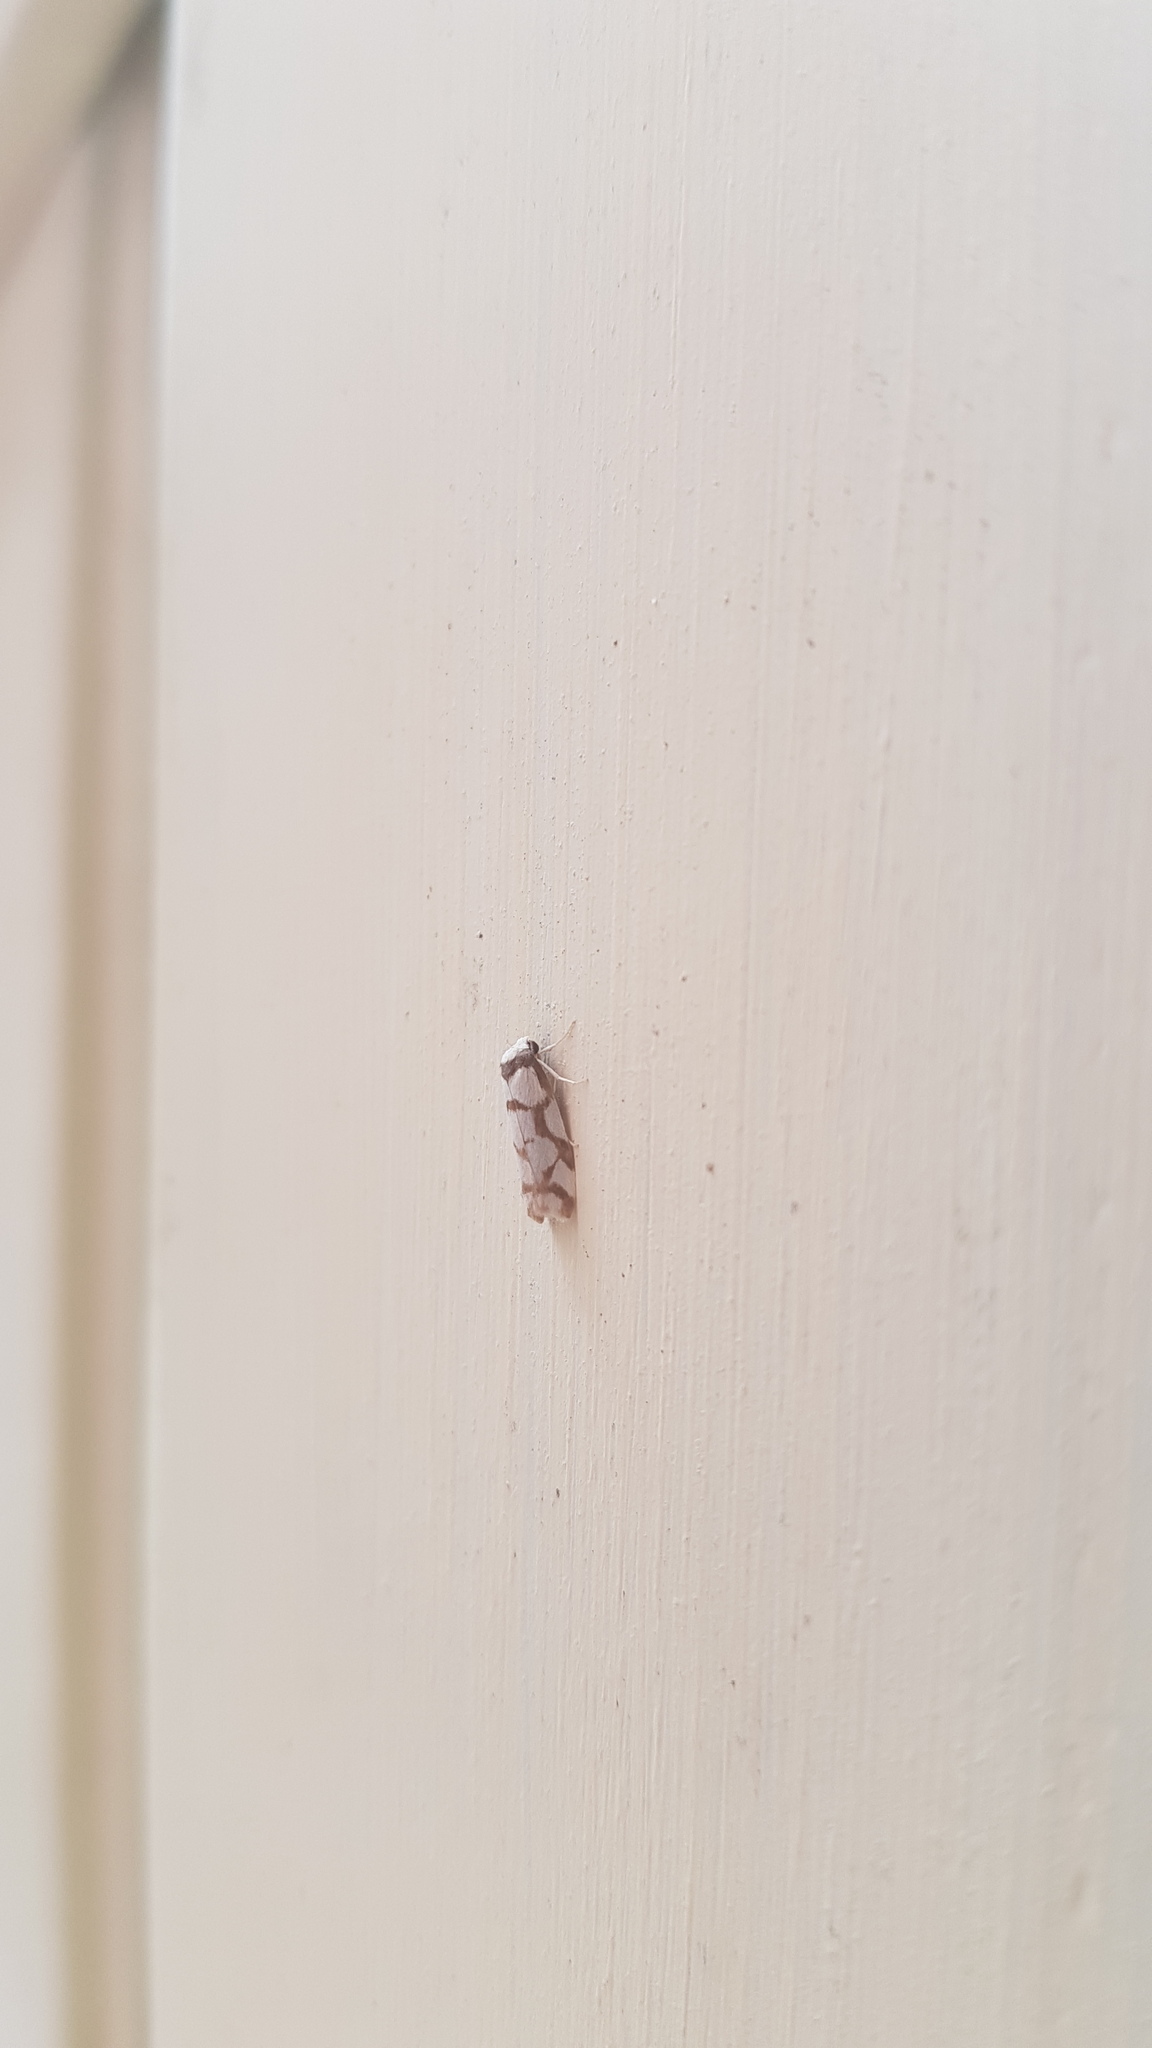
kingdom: Animalia
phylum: Arthropoda
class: Insecta
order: Lepidoptera
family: Erebidae
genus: Scaptesyle
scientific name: Scaptesyle dichotoma
